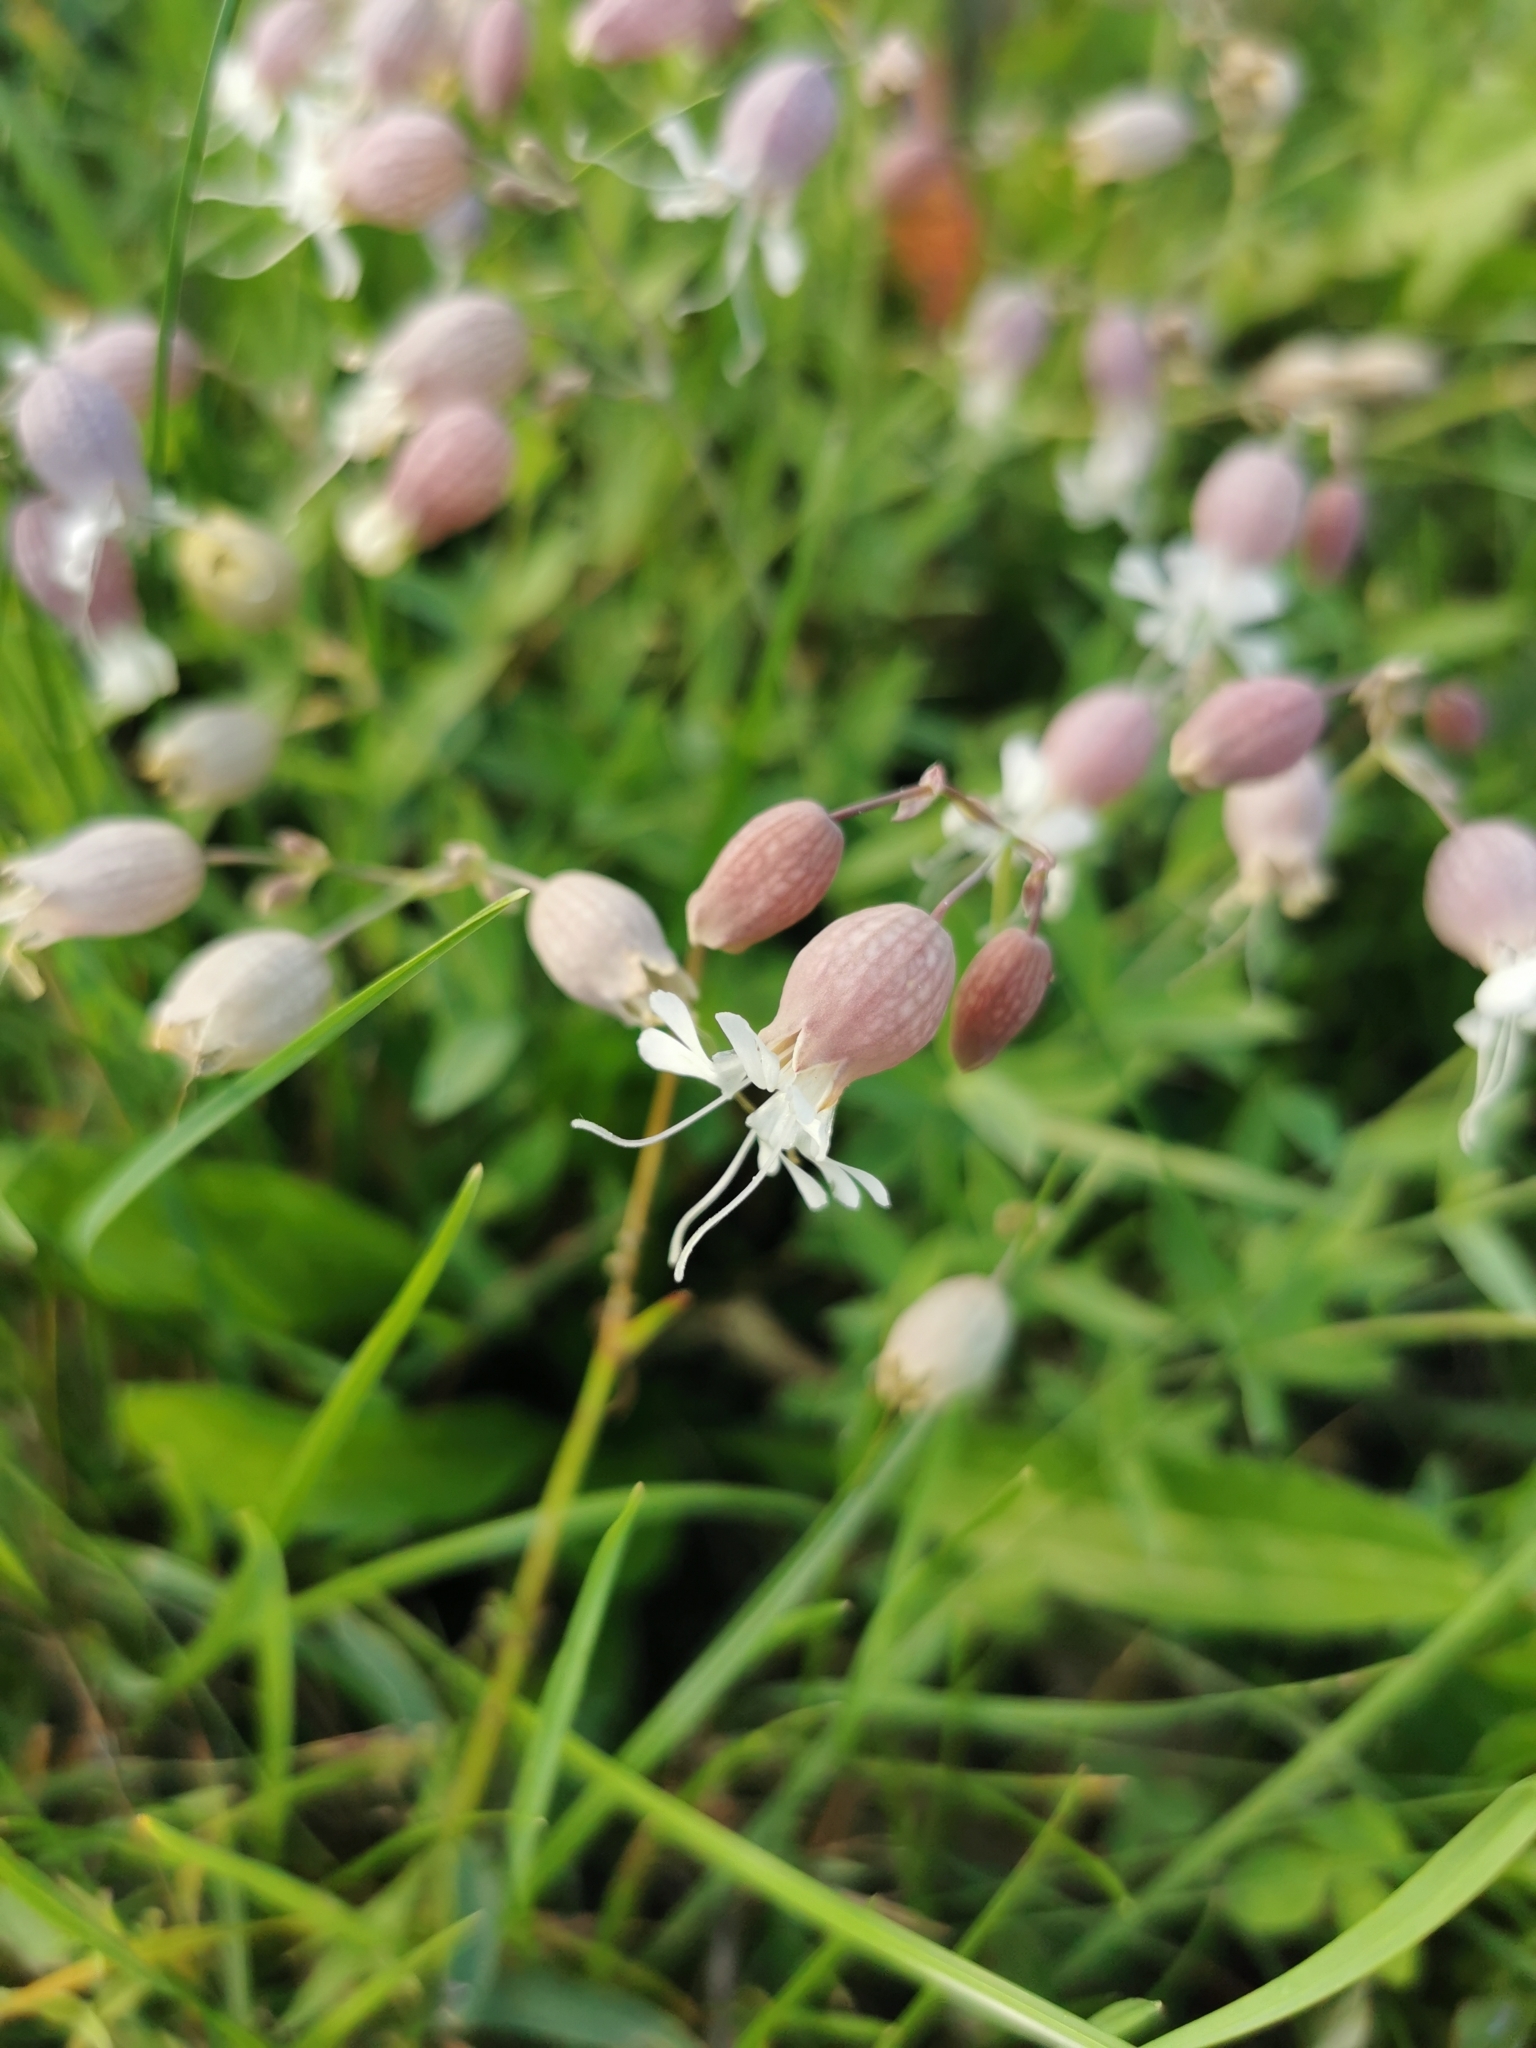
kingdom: Plantae
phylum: Tracheophyta
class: Magnoliopsida
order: Caryophyllales
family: Caryophyllaceae
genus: Silene
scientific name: Silene vulgaris
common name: Bladder campion
